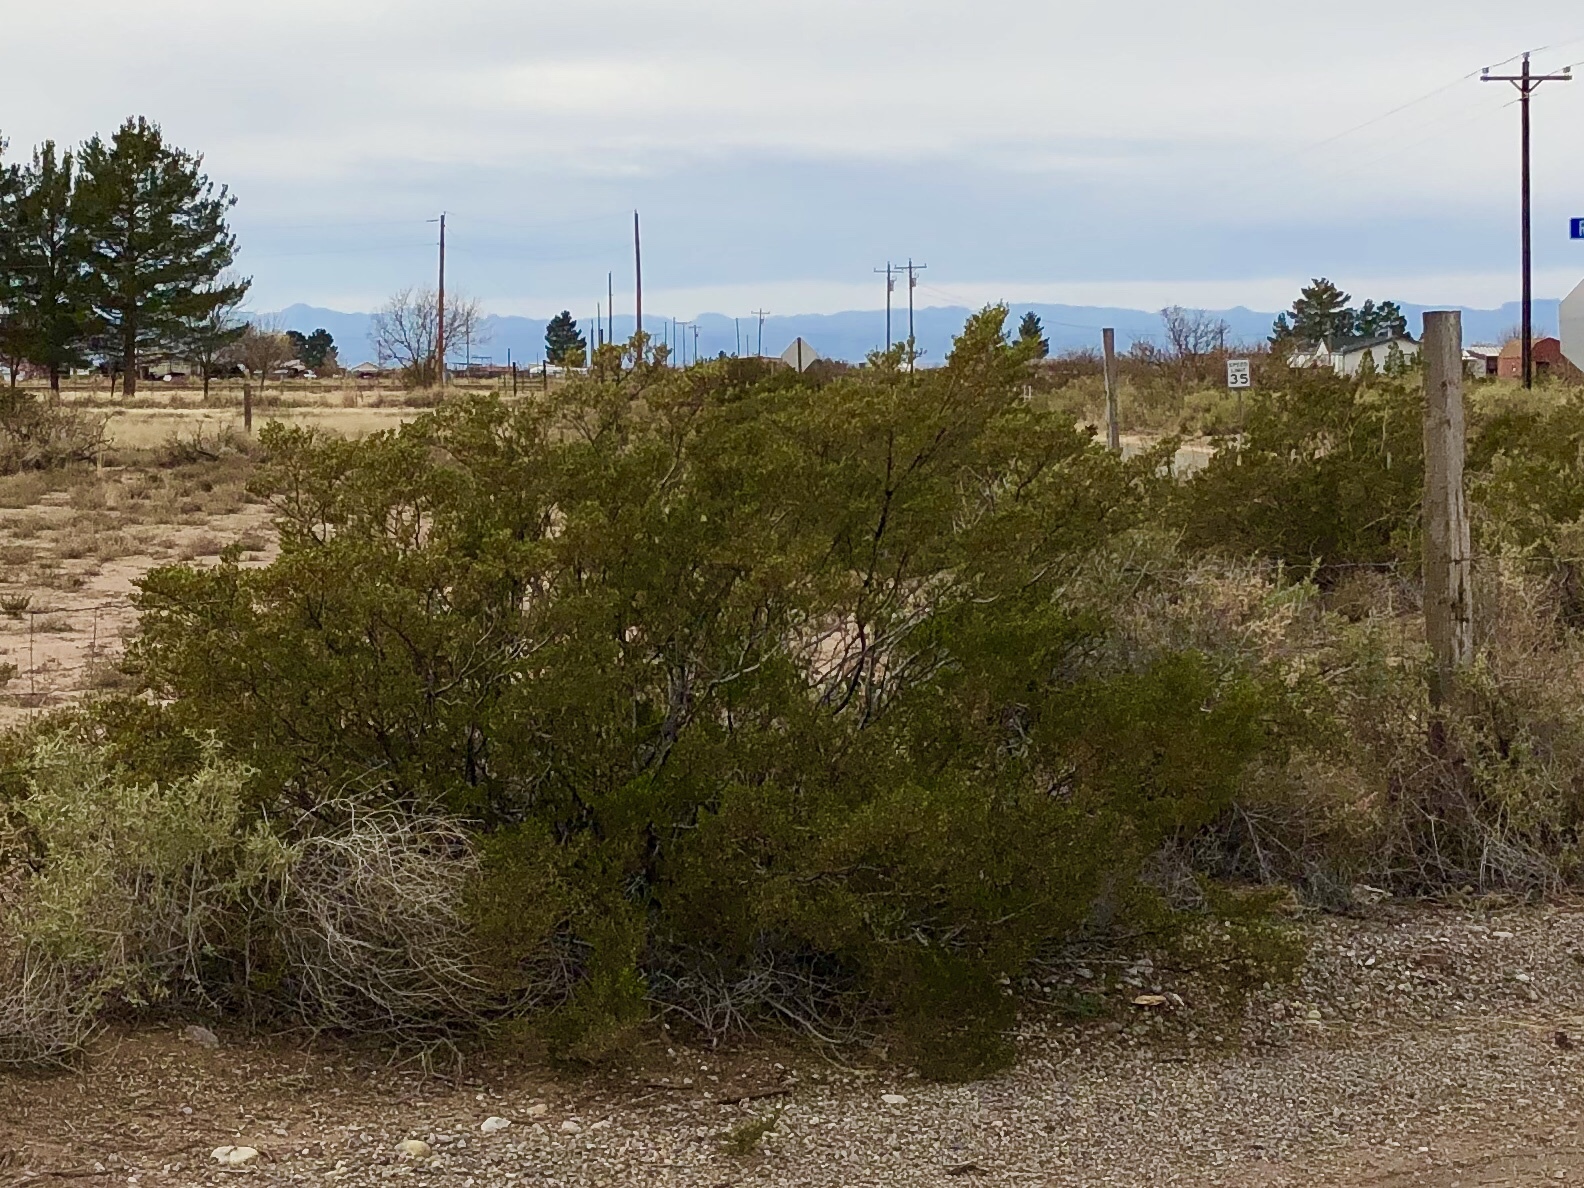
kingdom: Plantae
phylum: Tracheophyta
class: Magnoliopsida
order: Zygophyllales
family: Zygophyllaceae
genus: Larrea
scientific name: Larrea tridentata
